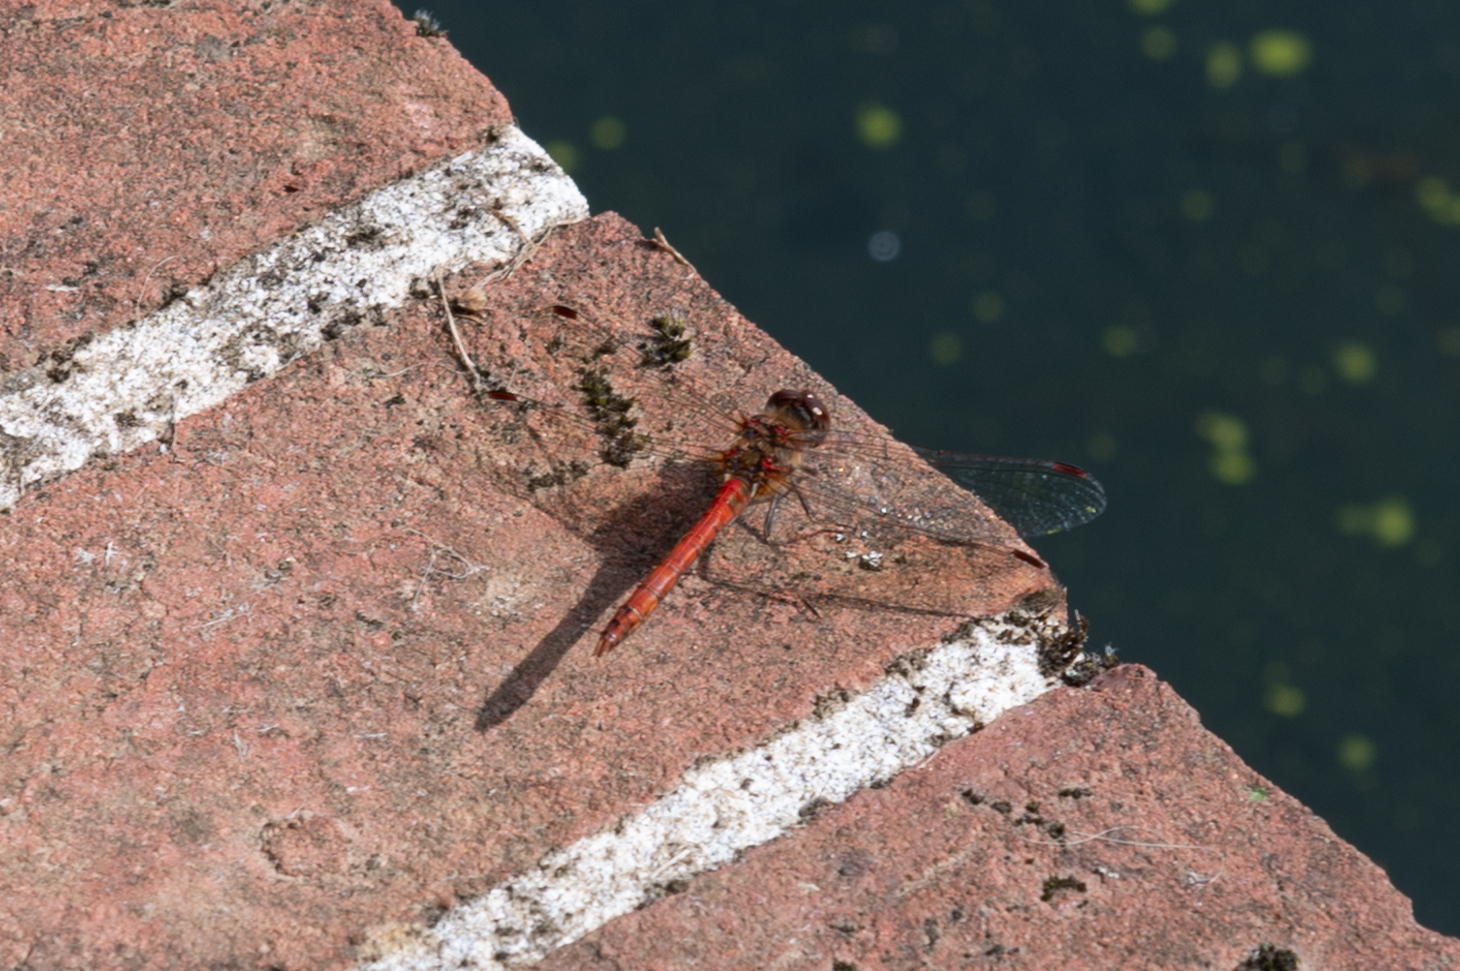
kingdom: Animalia
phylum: Arthropoda
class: Insecta
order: Odonata
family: Libellulidae
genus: Sympetrum
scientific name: Sympetrum striolatum
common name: Common darter
